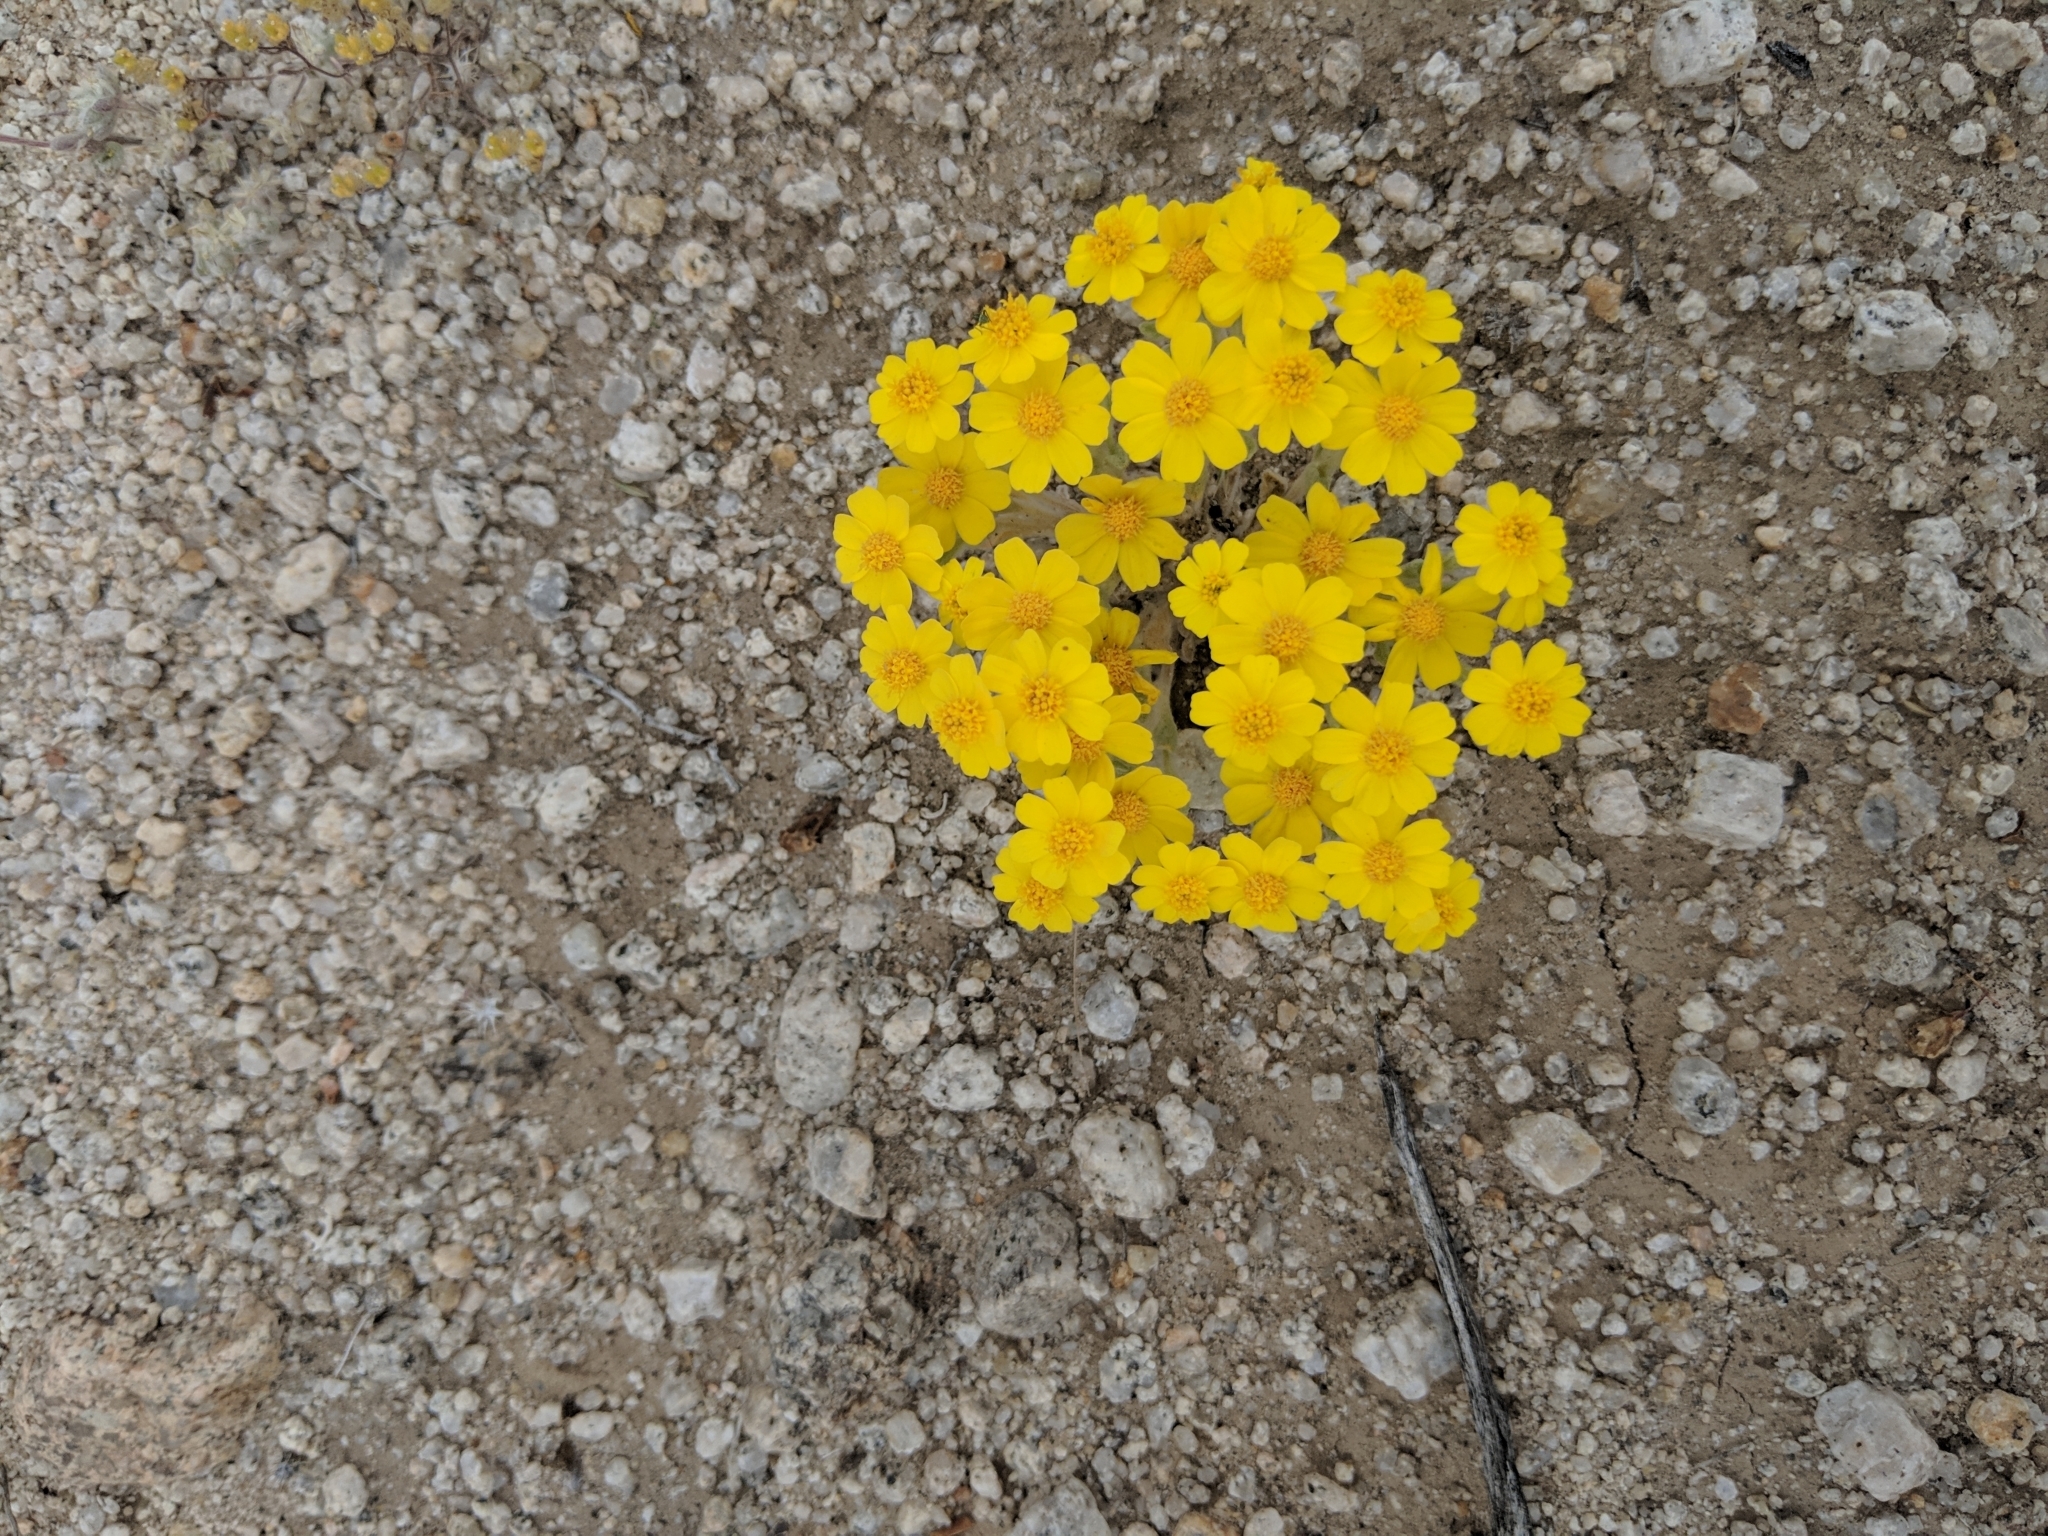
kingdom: Plantae
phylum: Tracheophyta
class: Magnoliopsida
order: Asterales
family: Asteraceae
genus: Eriophyllum
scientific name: Eriophyllum wallacei
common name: Wallace's woolly daisy
